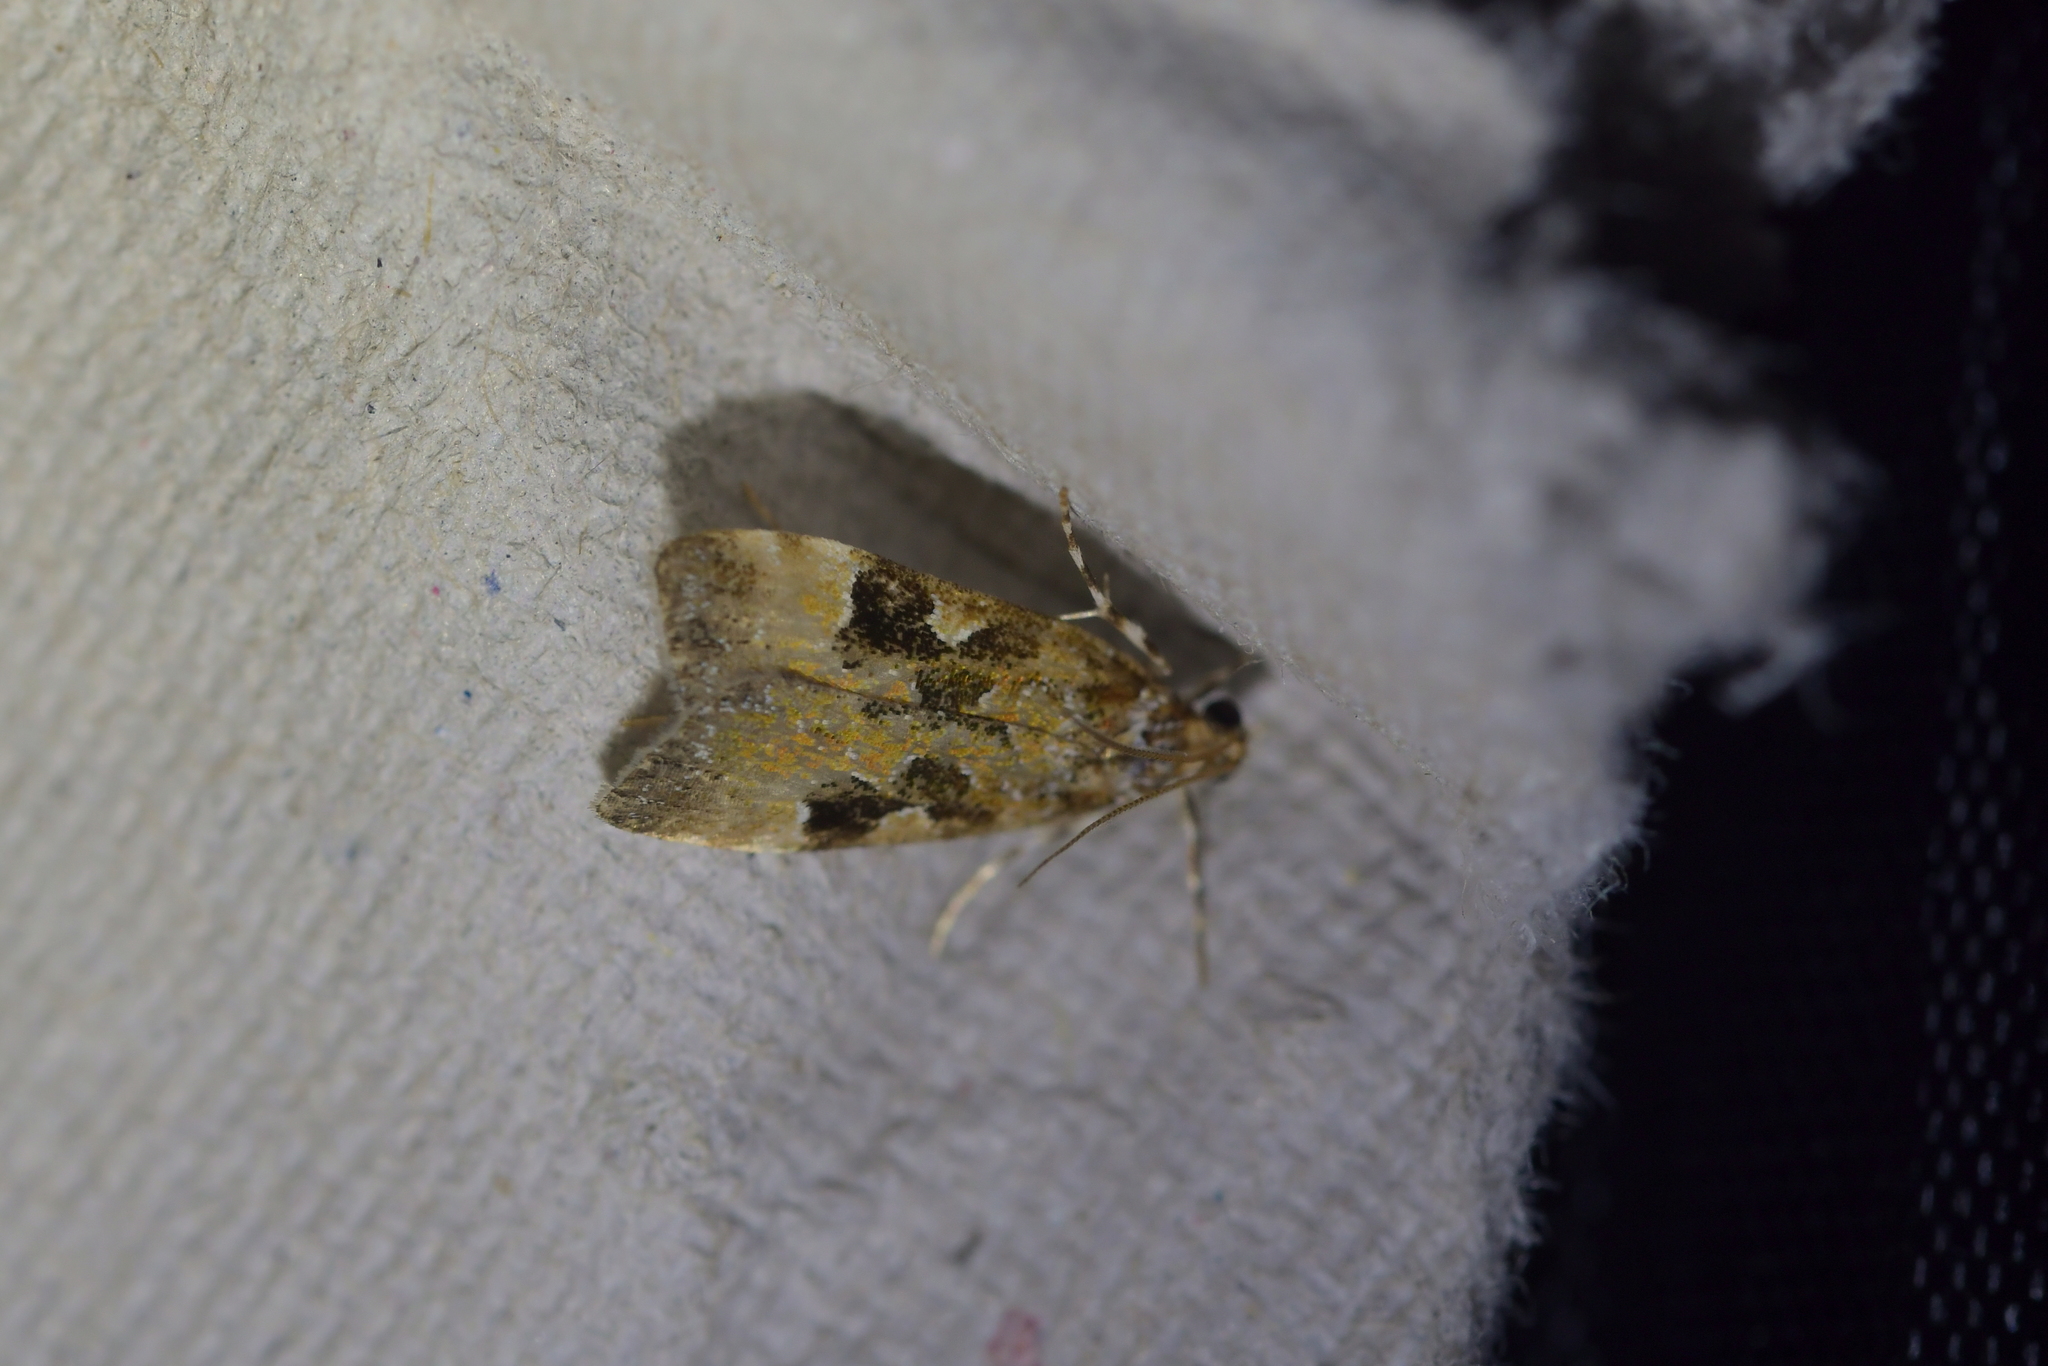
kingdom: Animalia
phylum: Arthropoda
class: Insecta
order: Lepidoptera
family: Crambidae
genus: Scoparia
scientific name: Scoparia ustimacula
